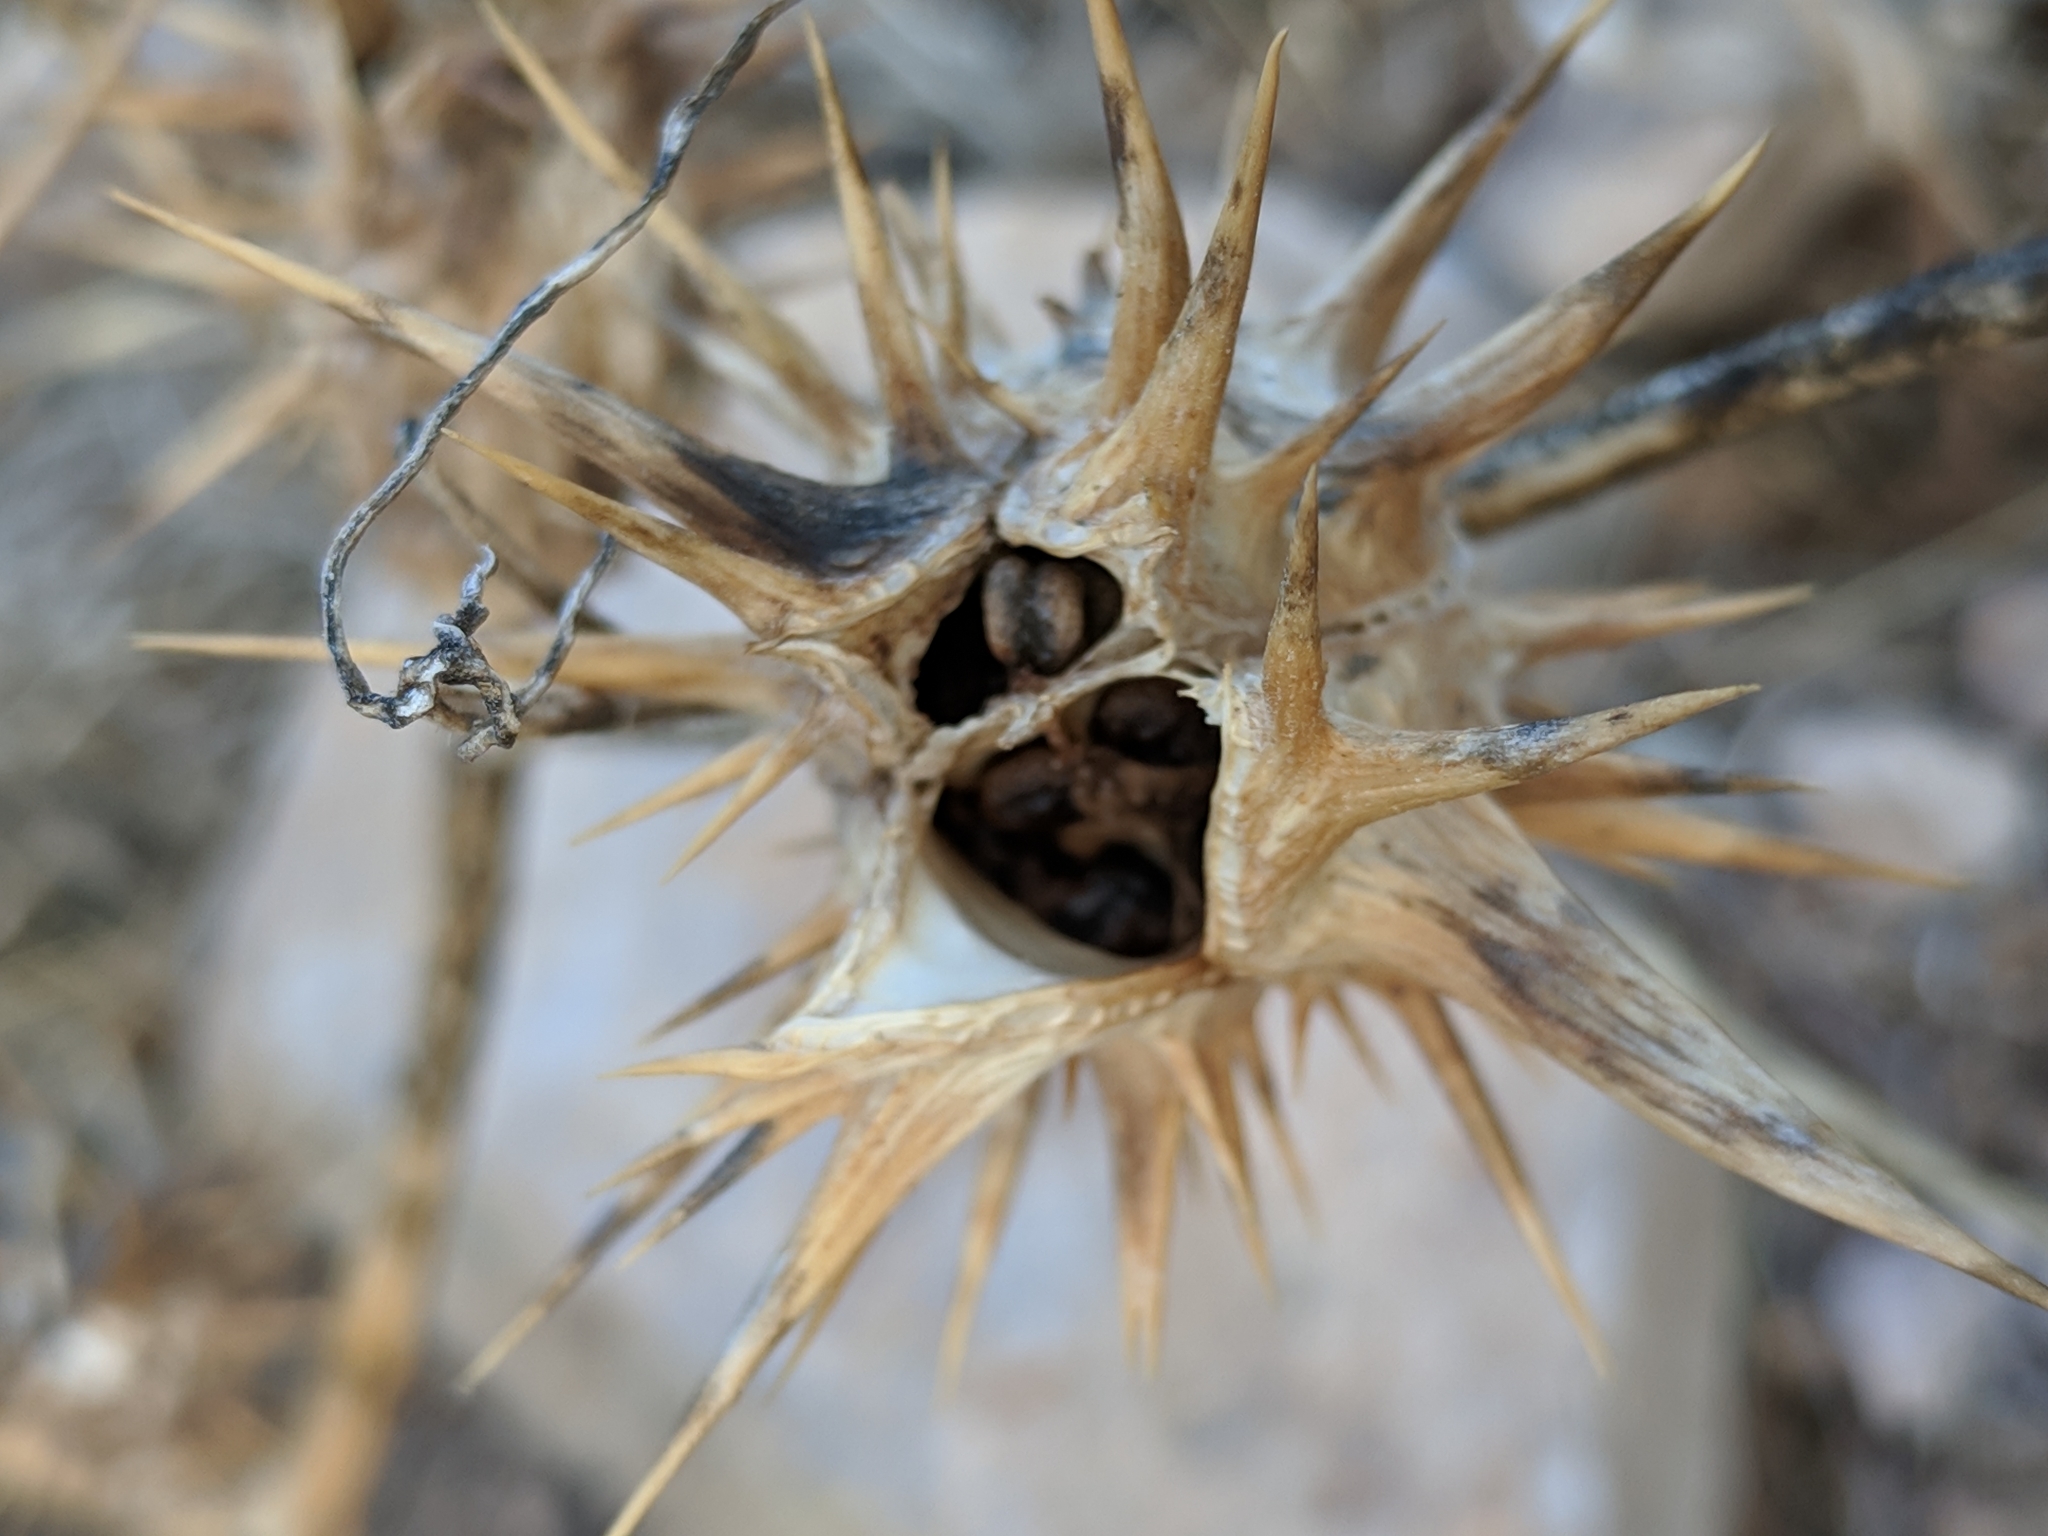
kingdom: Plantae
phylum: Tracheophyta
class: Magnoliopsida
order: Solanales
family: Solanaceae
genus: Datura
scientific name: Datura quercifolia
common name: Oak-leaf datura
